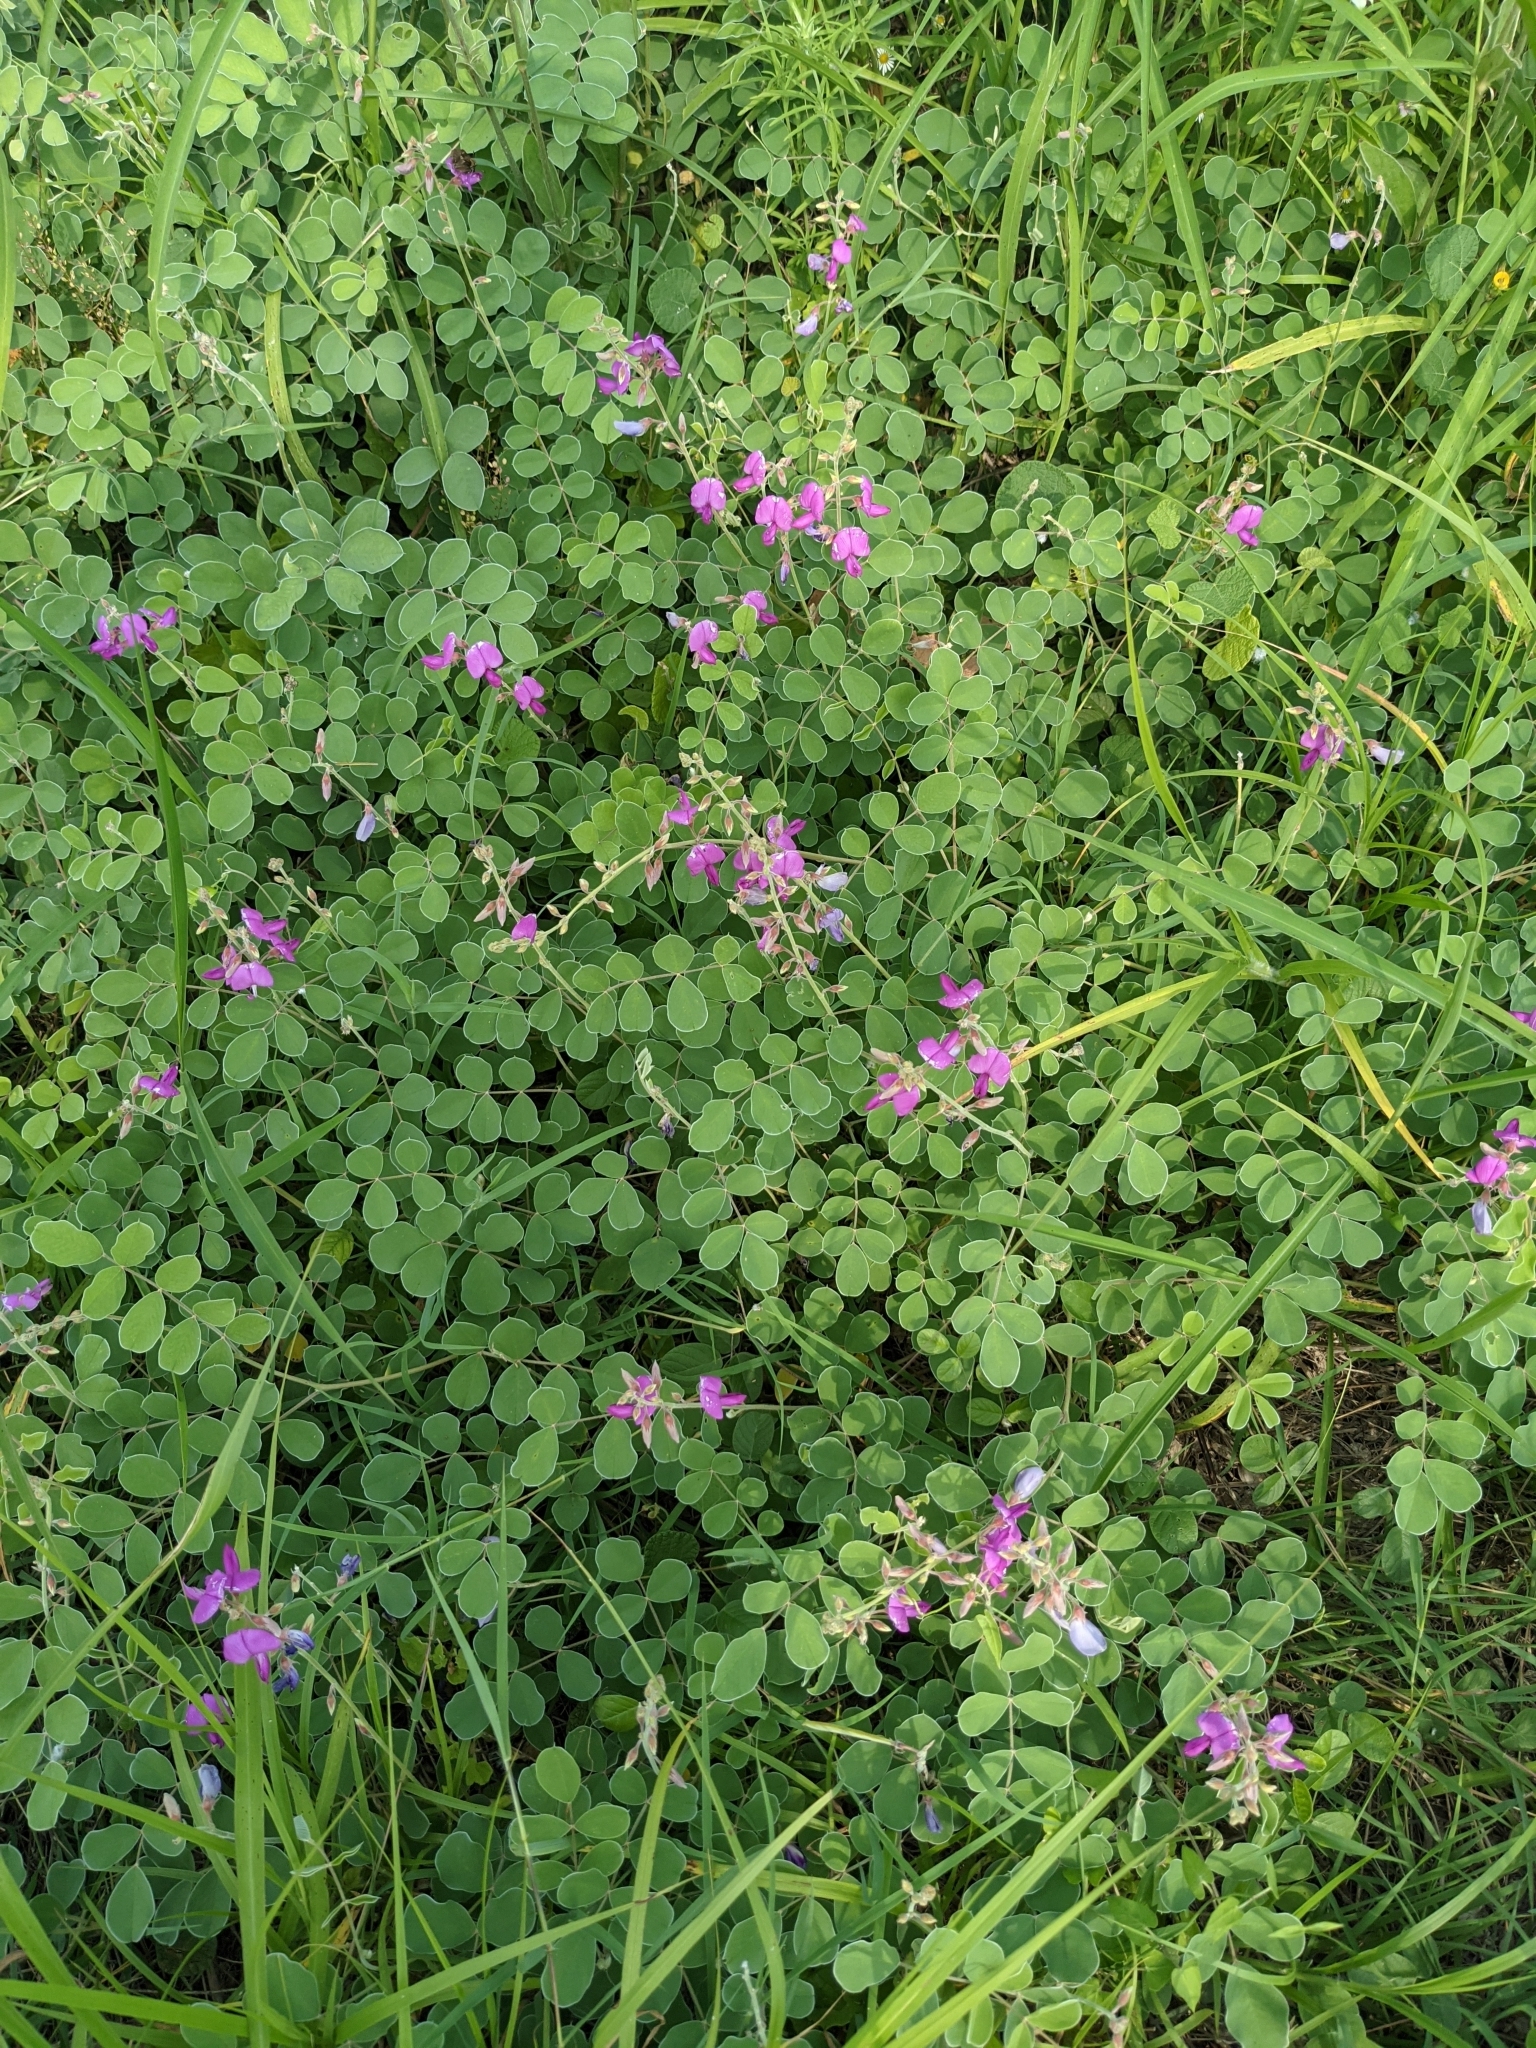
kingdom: Plantae
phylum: Tracheophyta
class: Magnoliopsida
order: Fabales
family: Fabaceae
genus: Tephrosia
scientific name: Tephrosia lindheimeri
